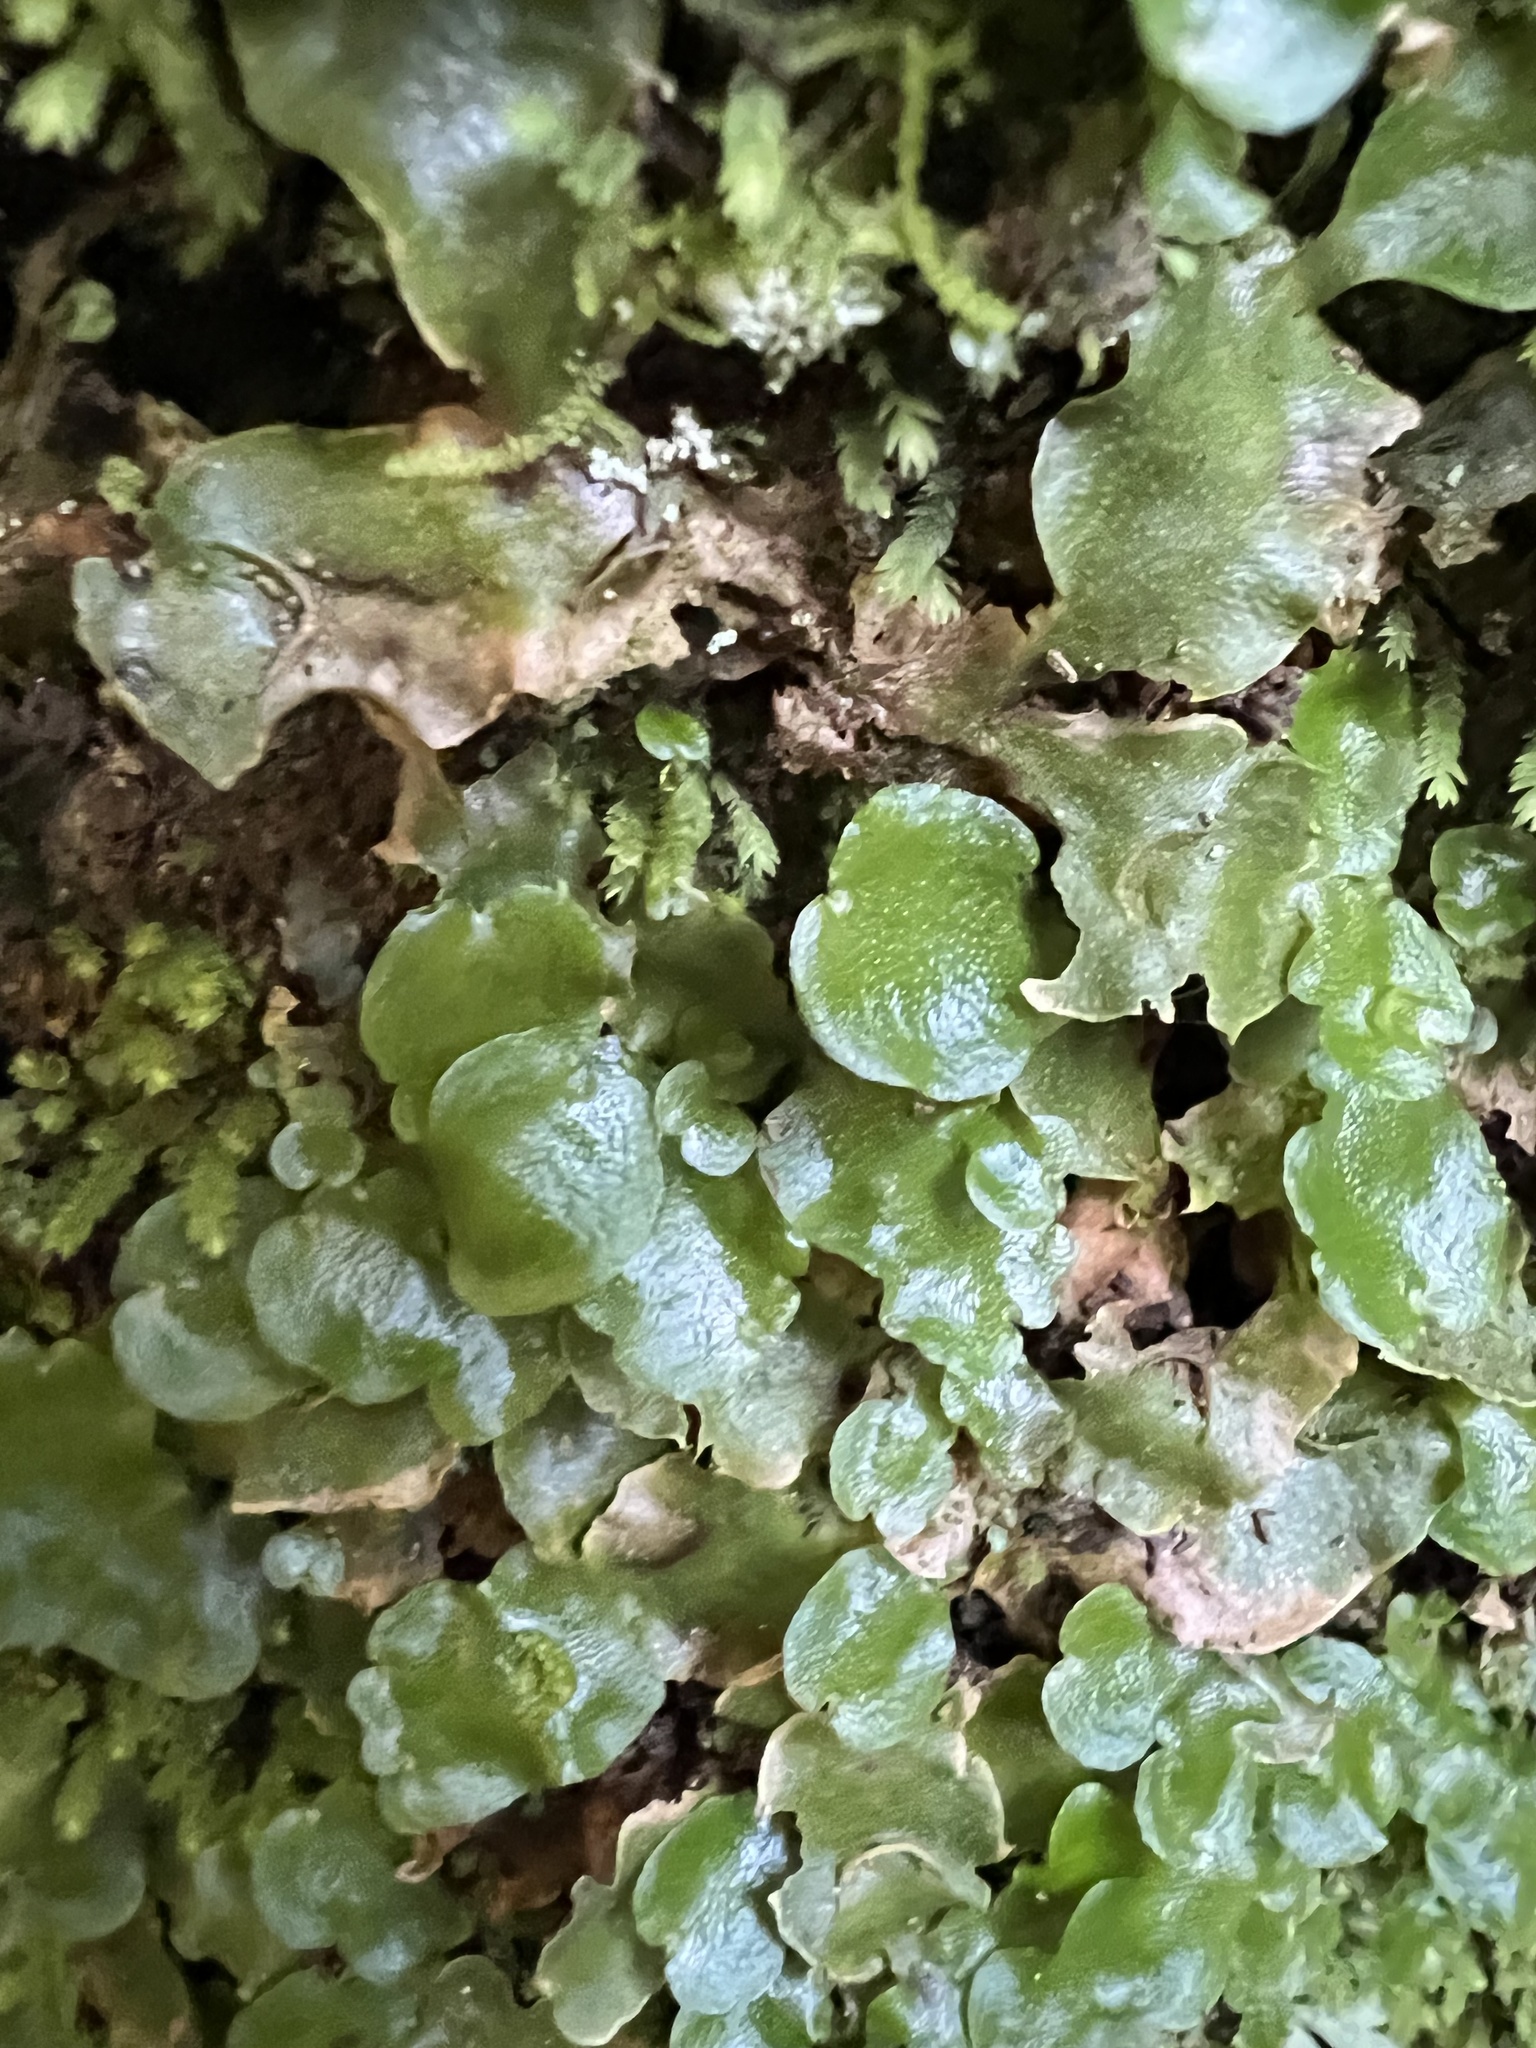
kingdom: Plantae
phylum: Marchantiophyta
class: Marchantiopsida
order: Lunulariales
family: Lunulariaceae
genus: Lunularia
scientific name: Lunularia cruciata
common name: Crescent-cup liverwort
